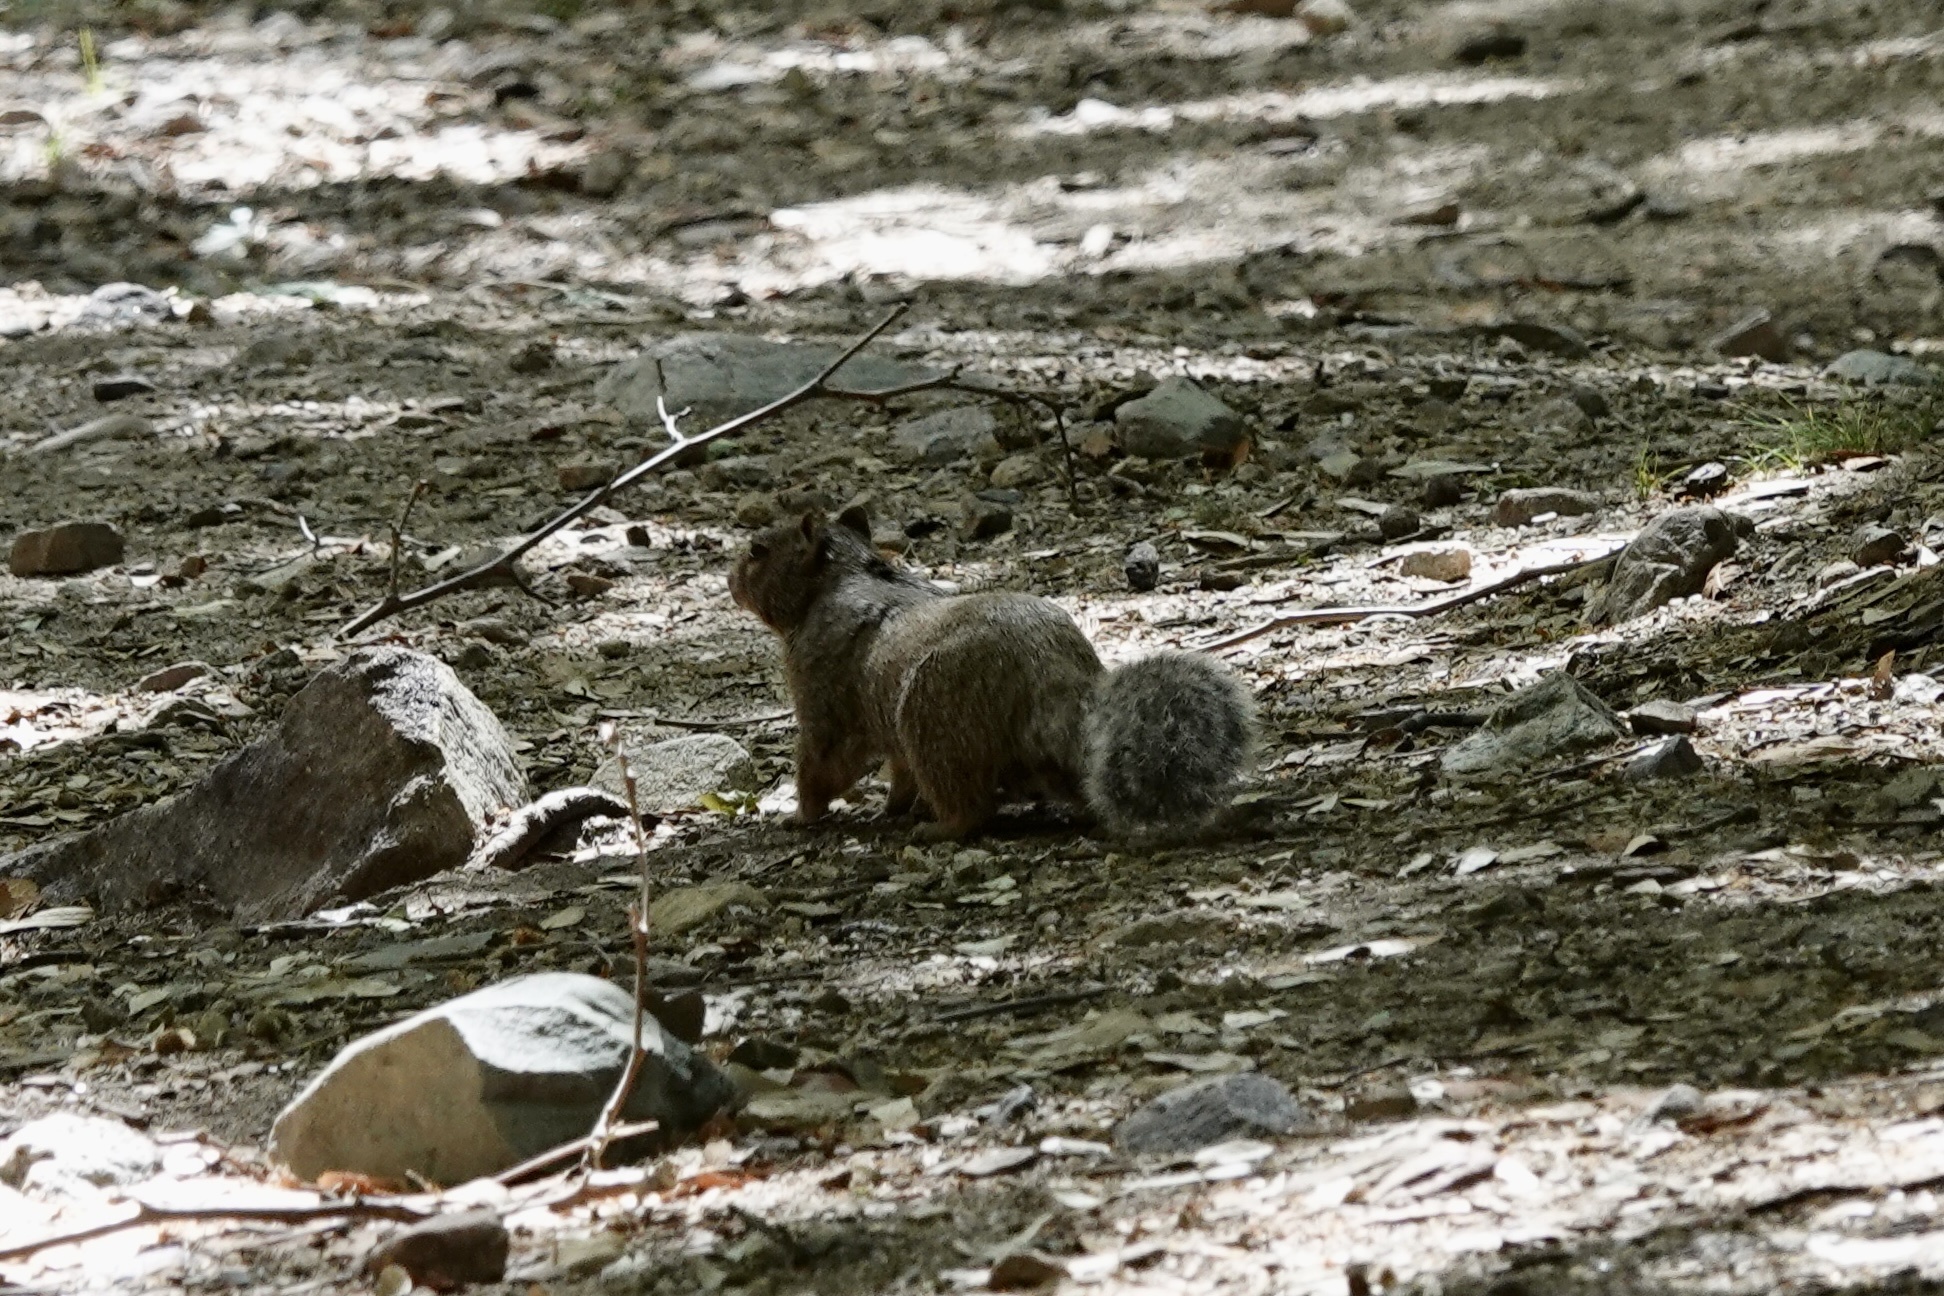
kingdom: Animalia
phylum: Chordata
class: Mammalia
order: Rodentia
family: Sciuridae
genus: Otospermophilus
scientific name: Otospermophilus variegatus
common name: Rock squirrel
